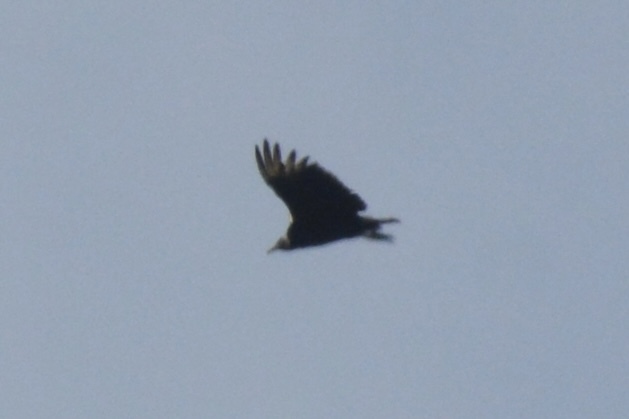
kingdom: Animalia
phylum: Chordata
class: Aves
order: Accipitriformes
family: Cathartidae
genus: Coragyps
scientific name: Coragyps atratus
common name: Black vulture
